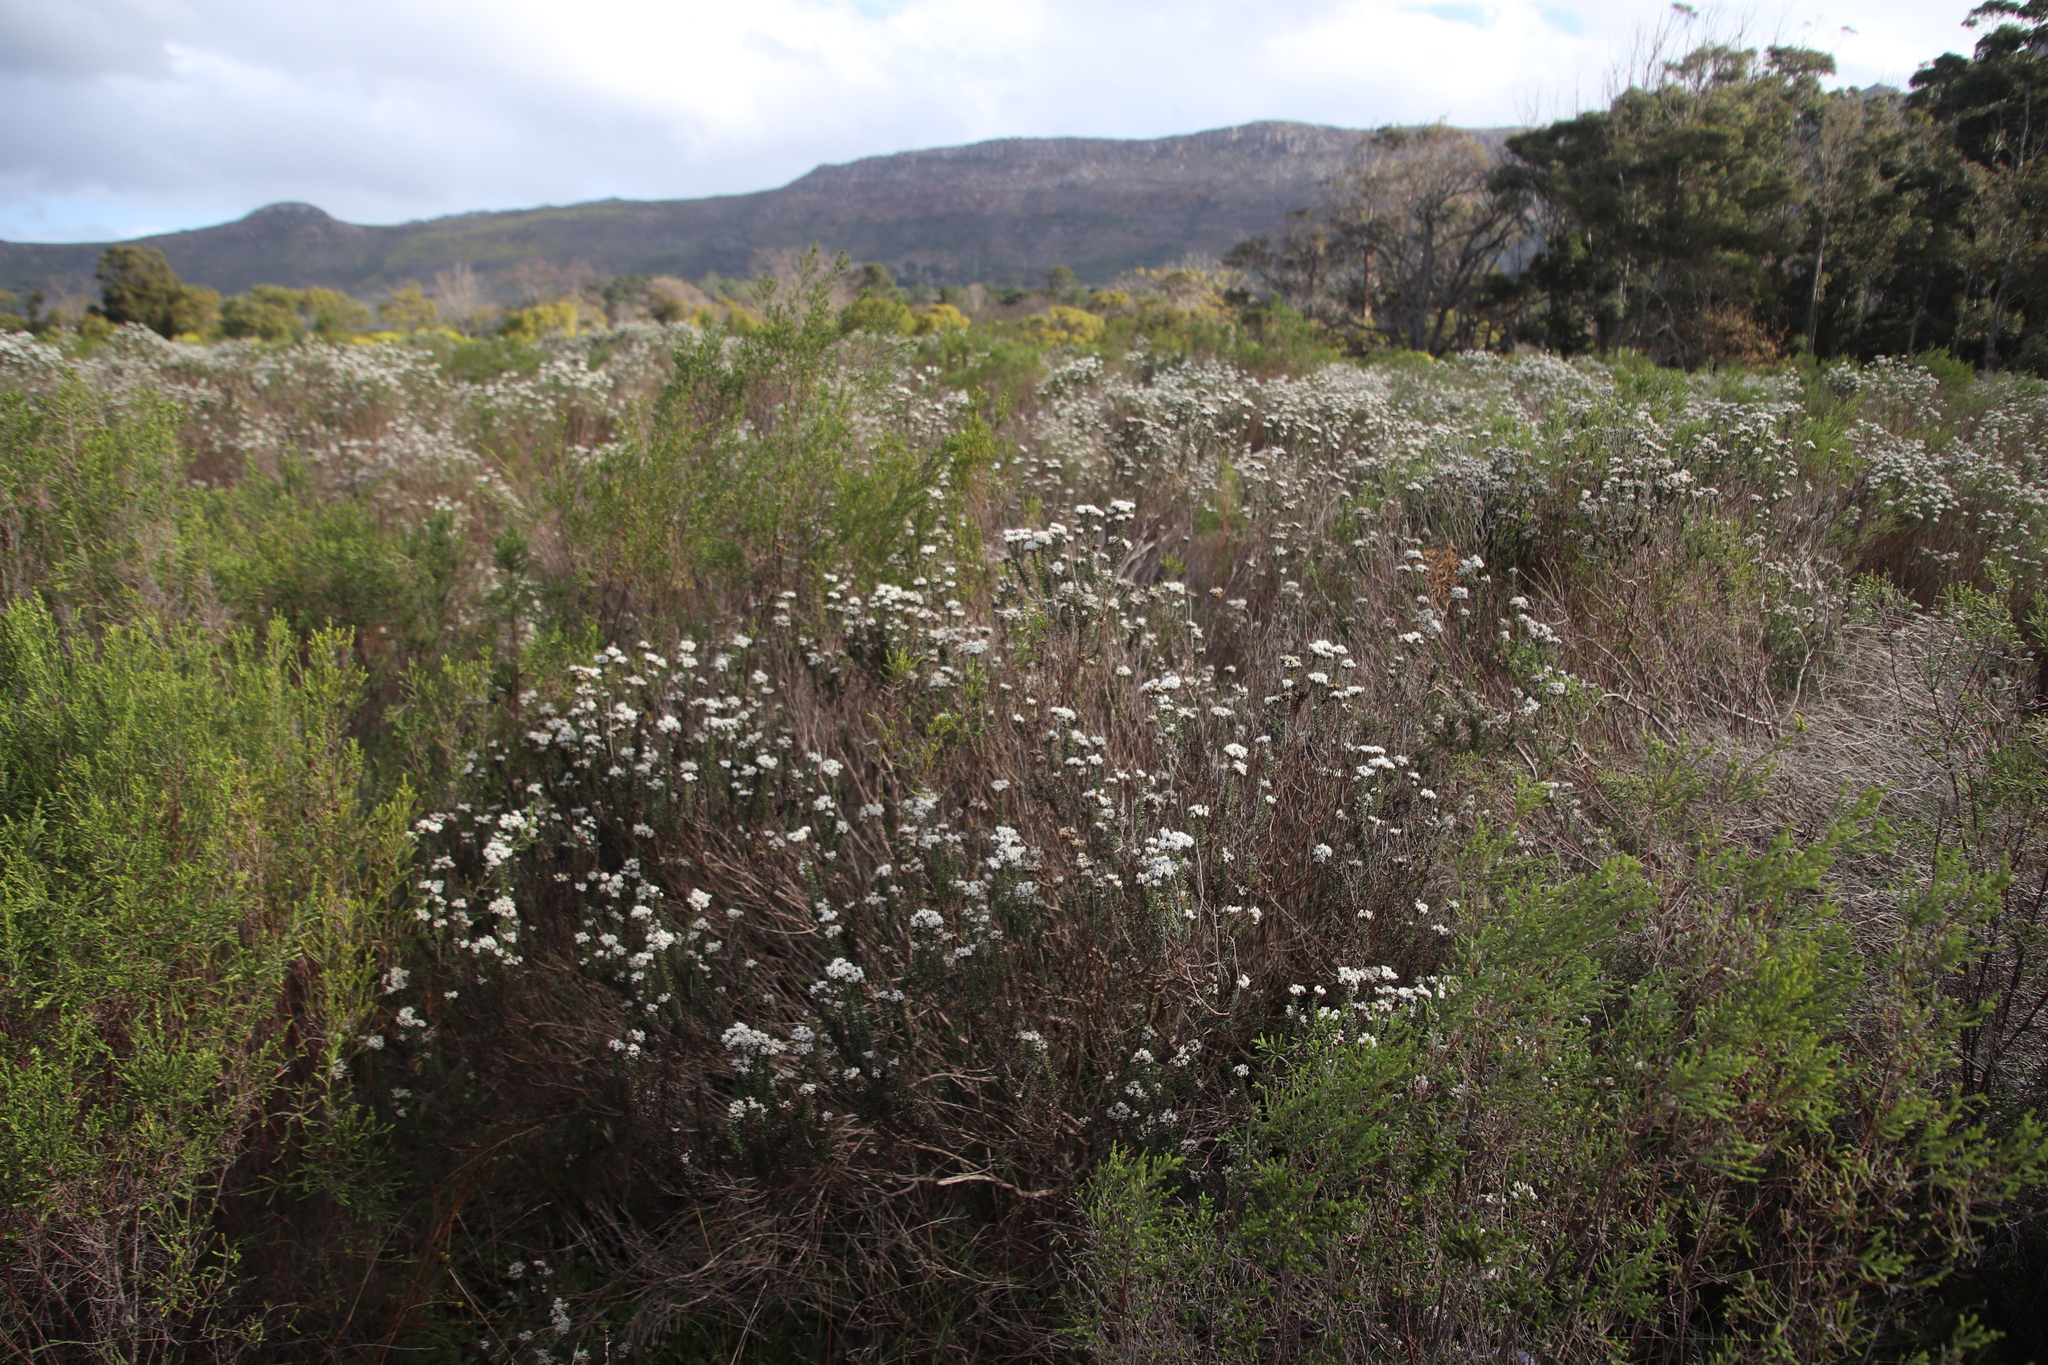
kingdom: Plantae
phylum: Tracheophyta
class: Magnoliopsida
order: Asterales
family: Asteraceae
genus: Metalasia
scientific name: Metalasia densa
